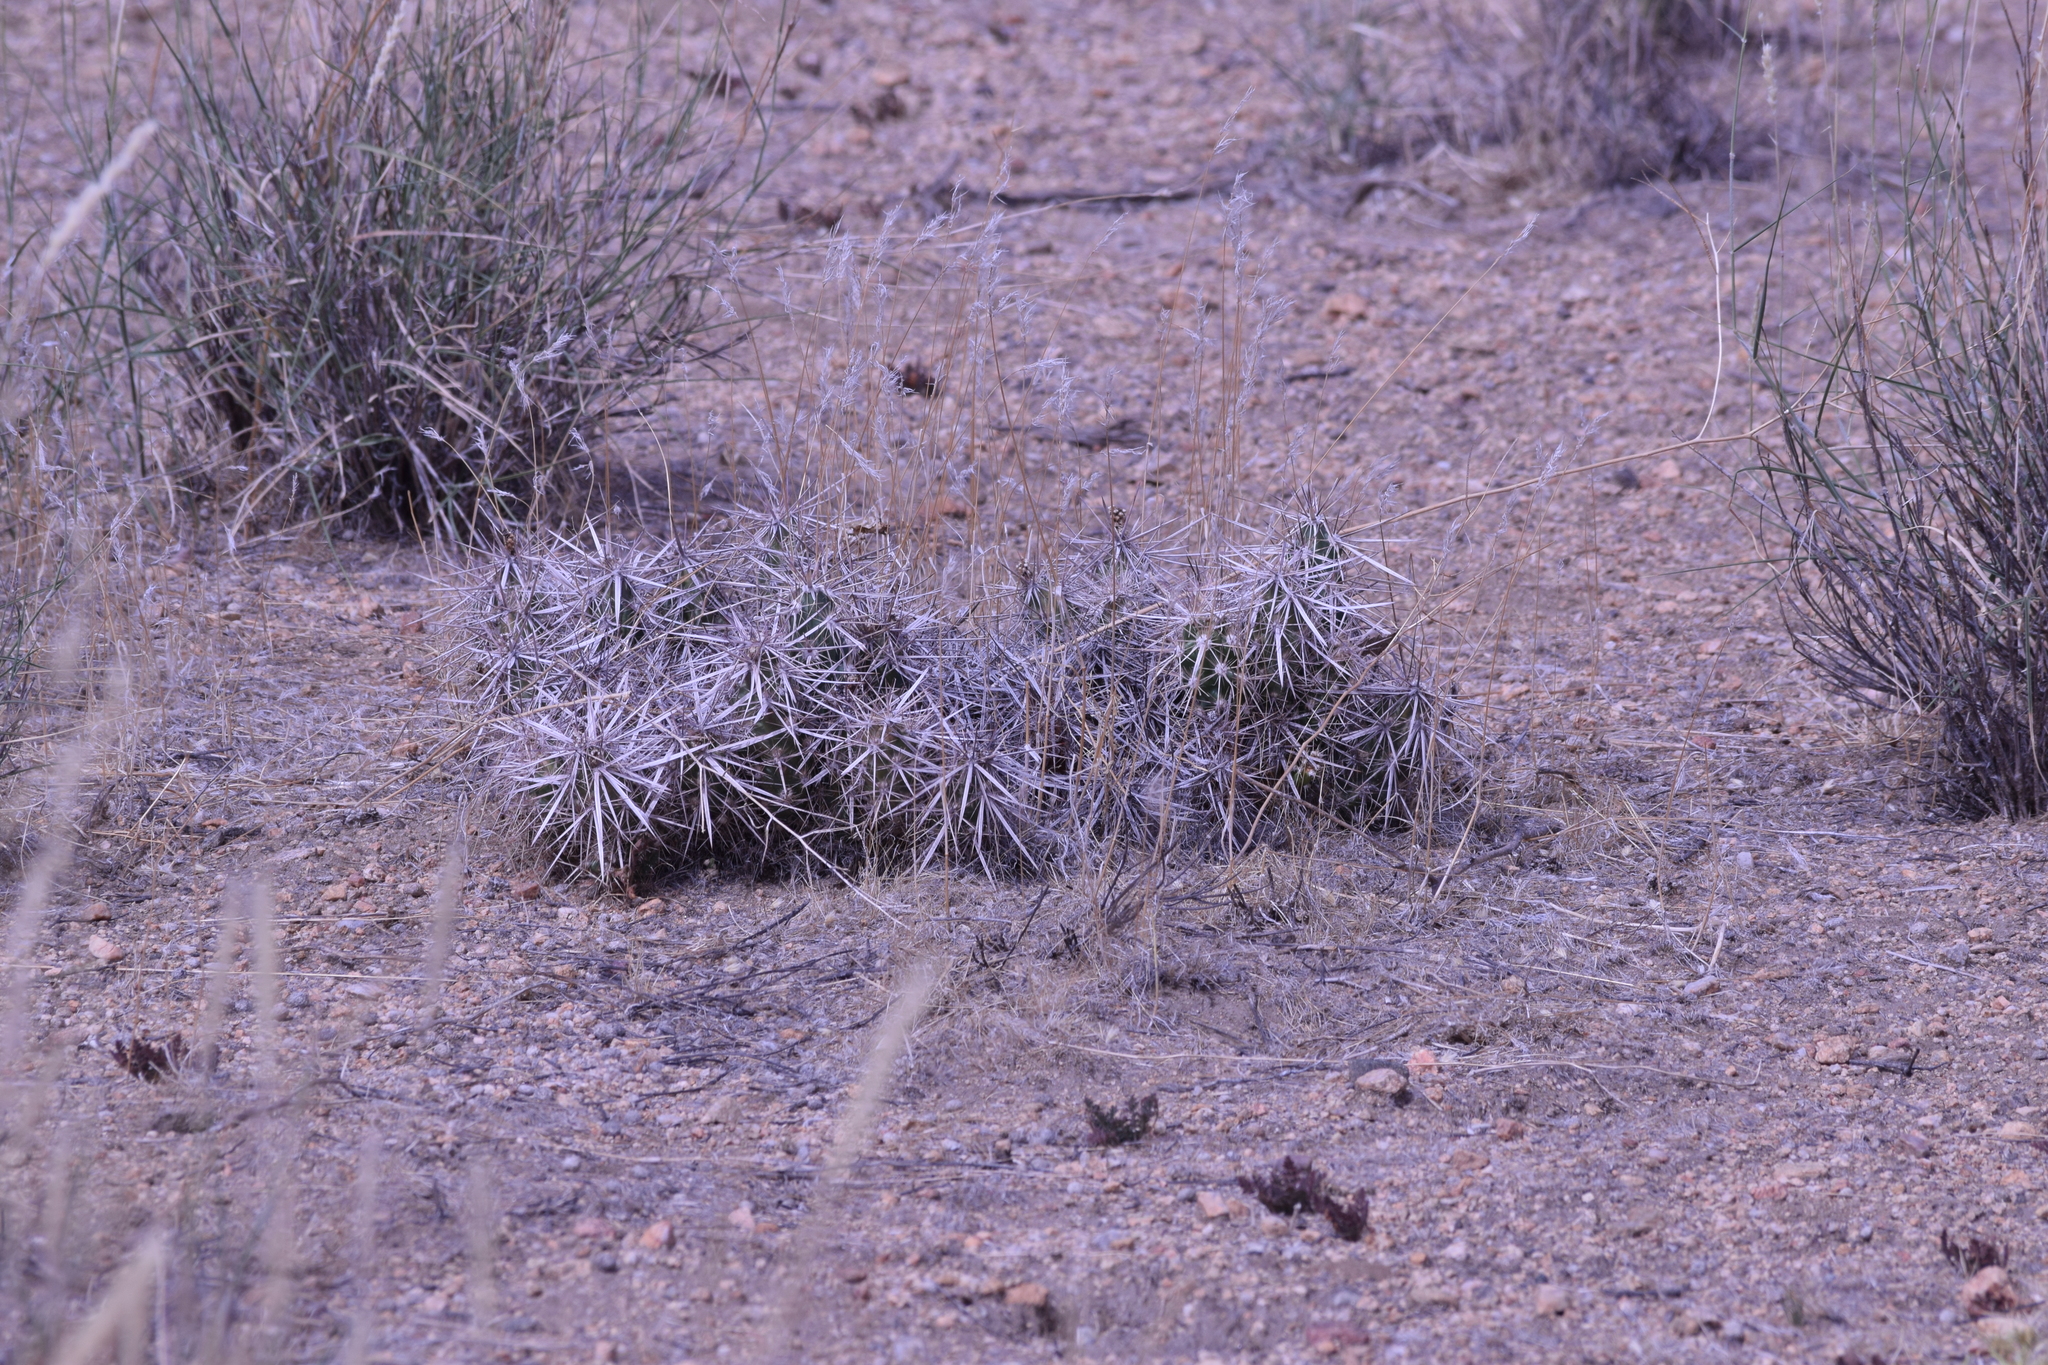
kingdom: Plantae
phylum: Tracheophyta
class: Magnoliopsida
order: Caryophyllales
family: Cactaceae
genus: Grusonia
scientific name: Grusonia parishiorum
